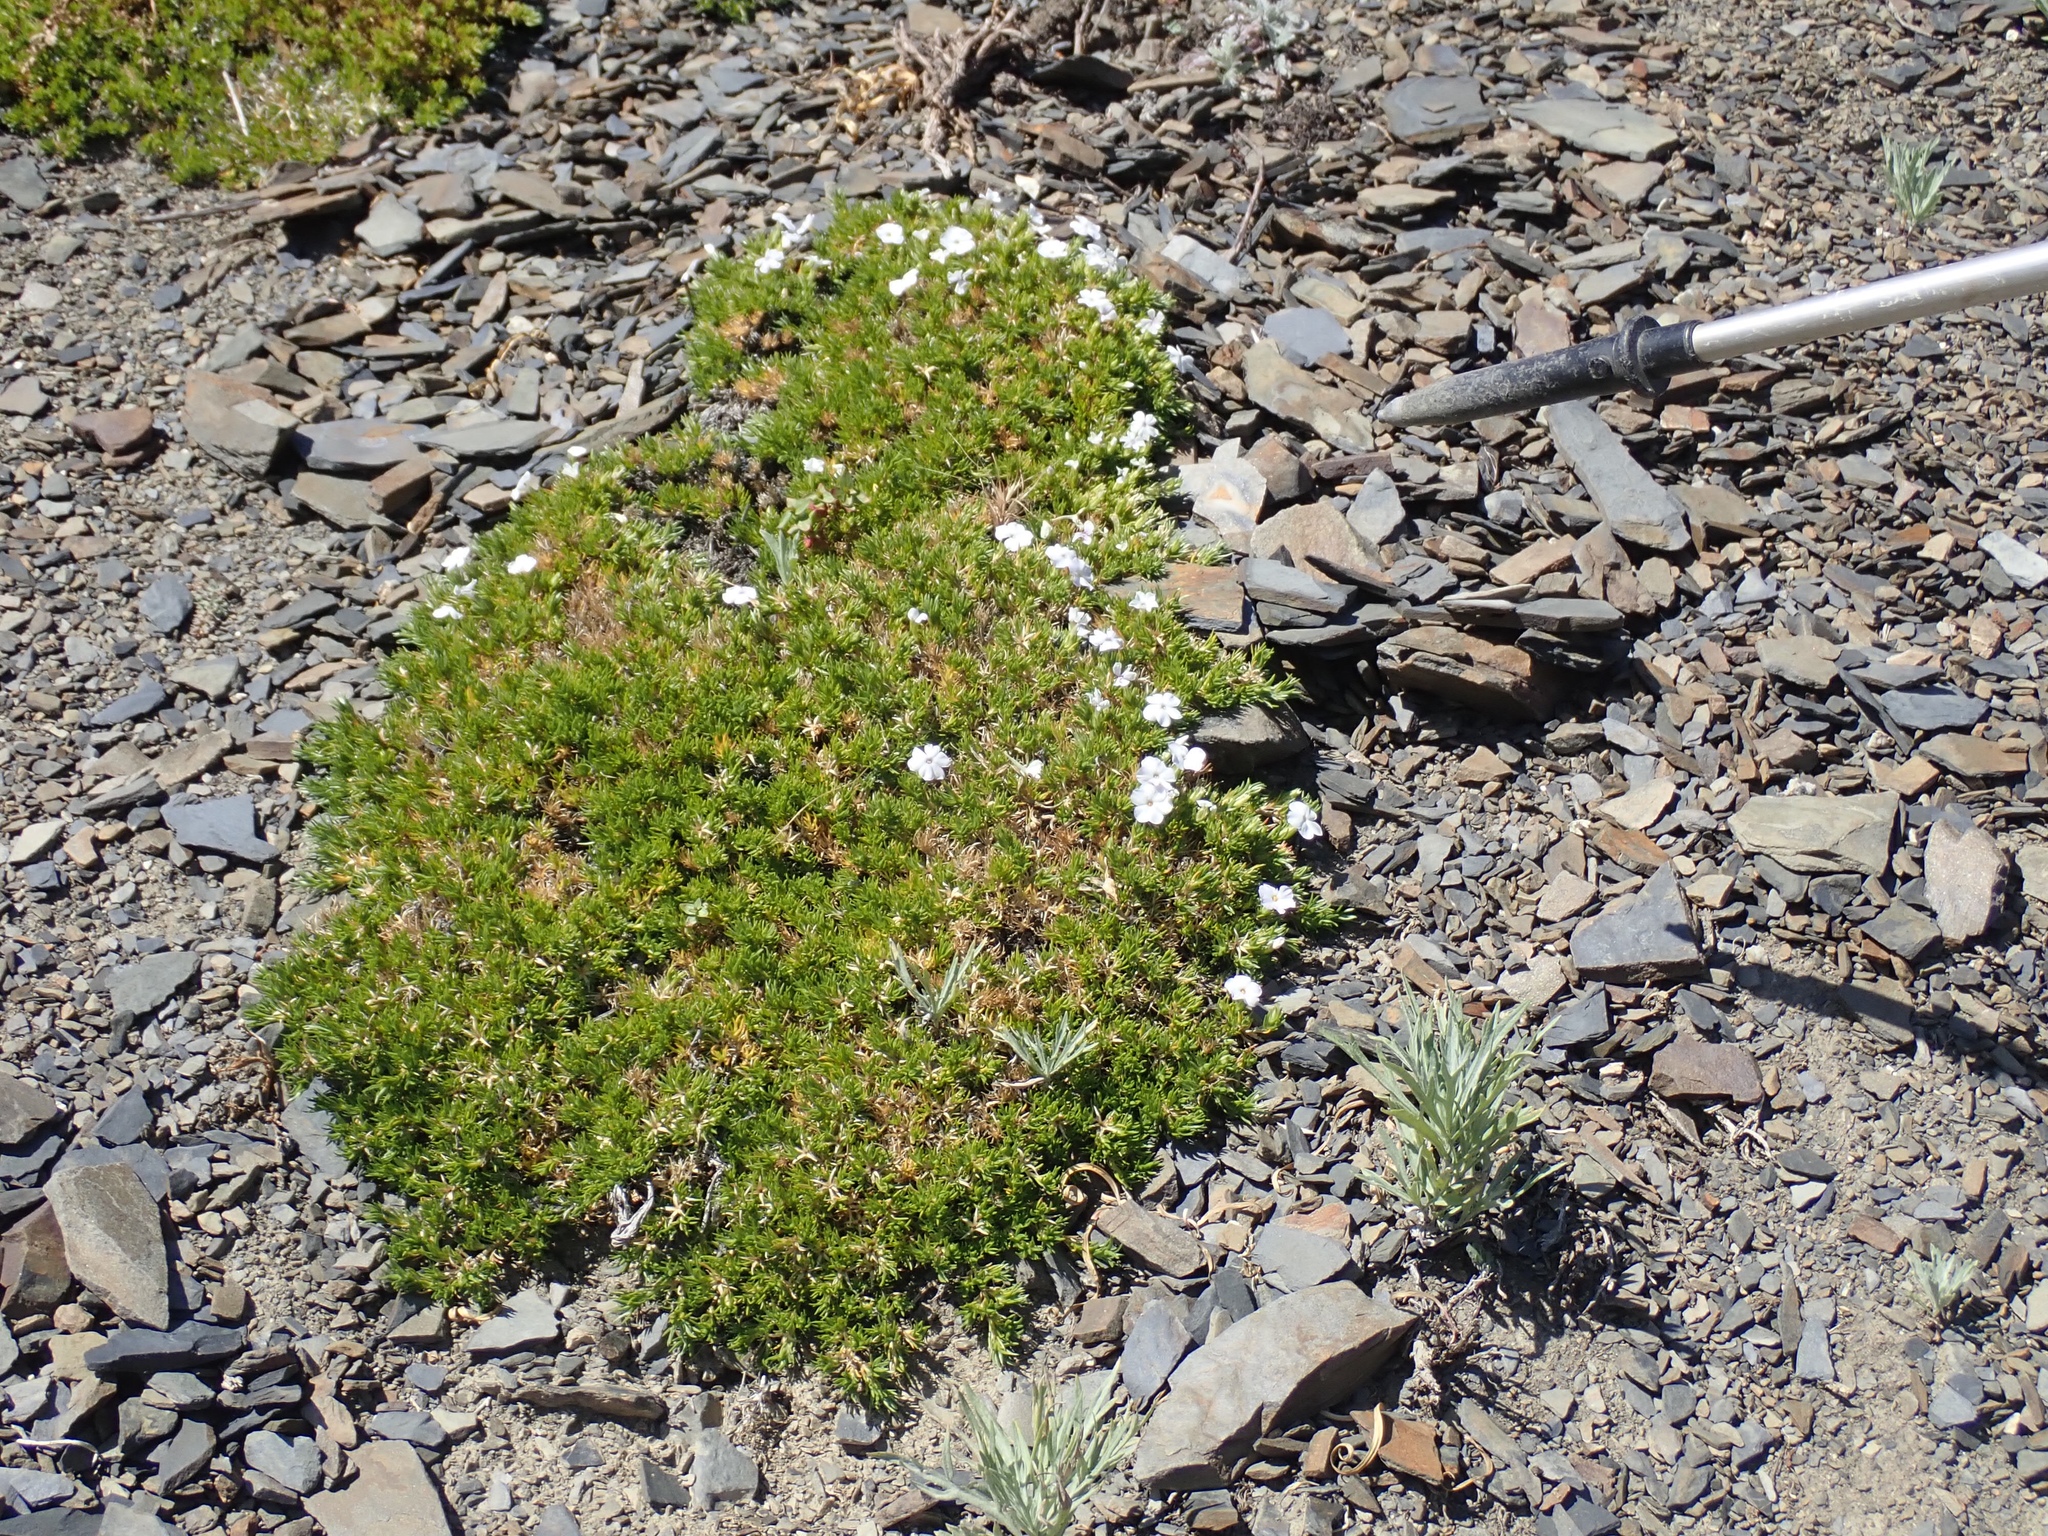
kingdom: Plantae
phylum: Tracheophyta
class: Magnoliopsida
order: Ericales
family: Polemoniaceae
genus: Phlox
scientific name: Phlox diffusa
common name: Mat phlox
